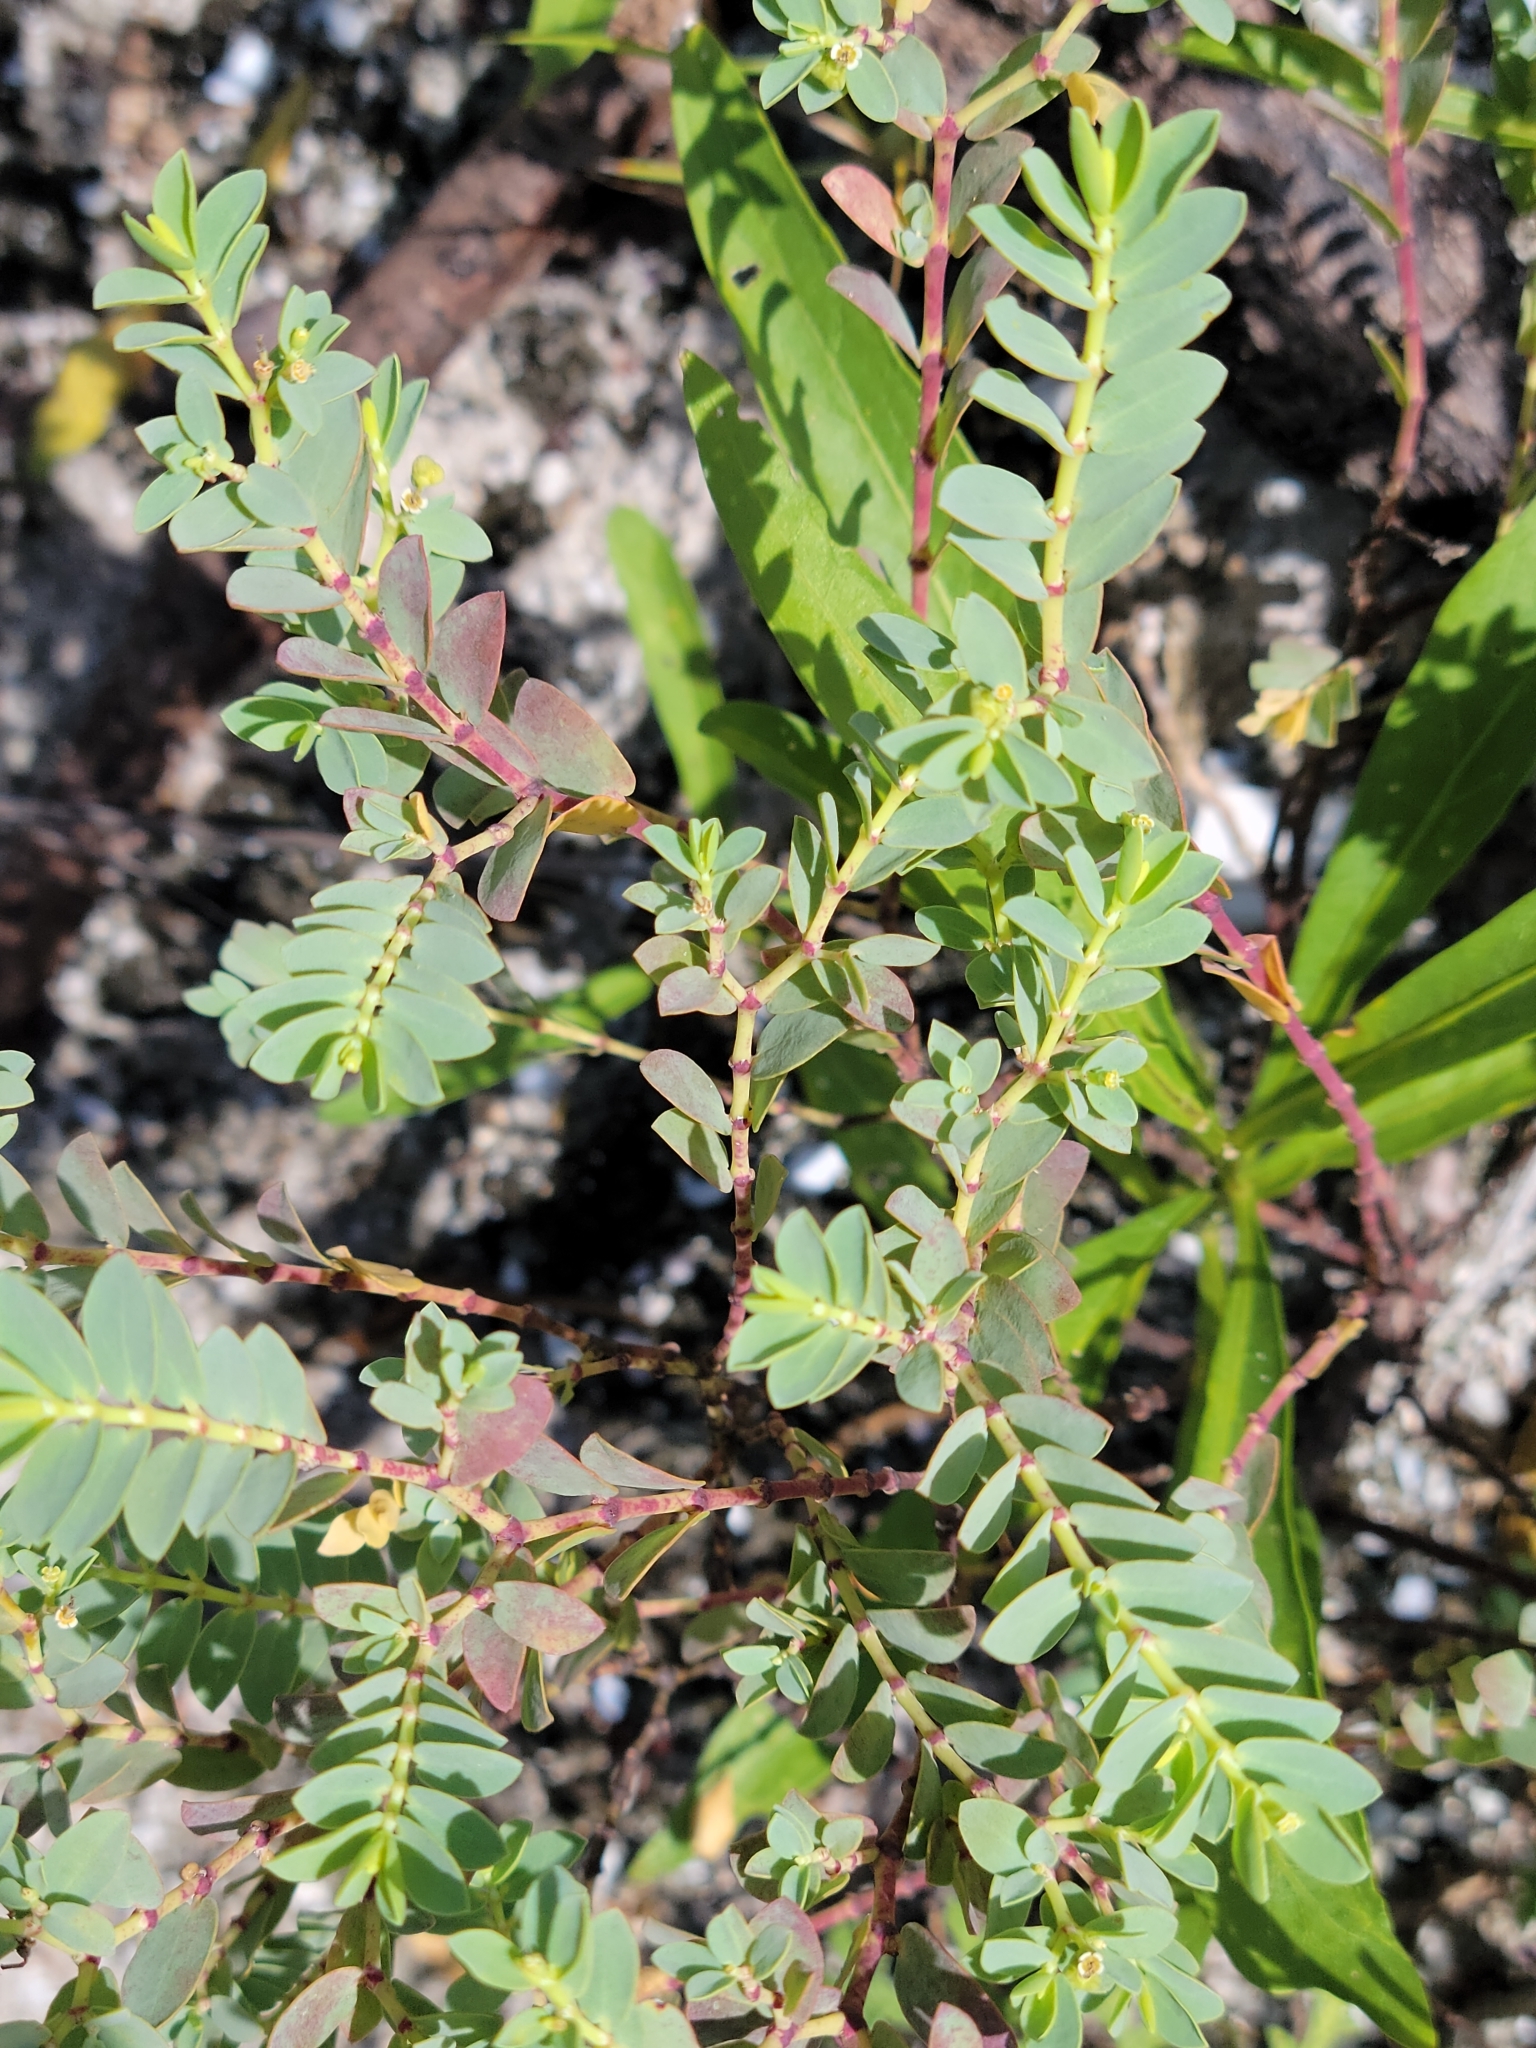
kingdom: Plantae
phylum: Tracheophyta
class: Magnoliopsida
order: Malpighiales
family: Euphorbiaceae
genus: Euphorbia
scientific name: Euphorbia mesembryanthemifolia
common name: Coastal beach sandmat
